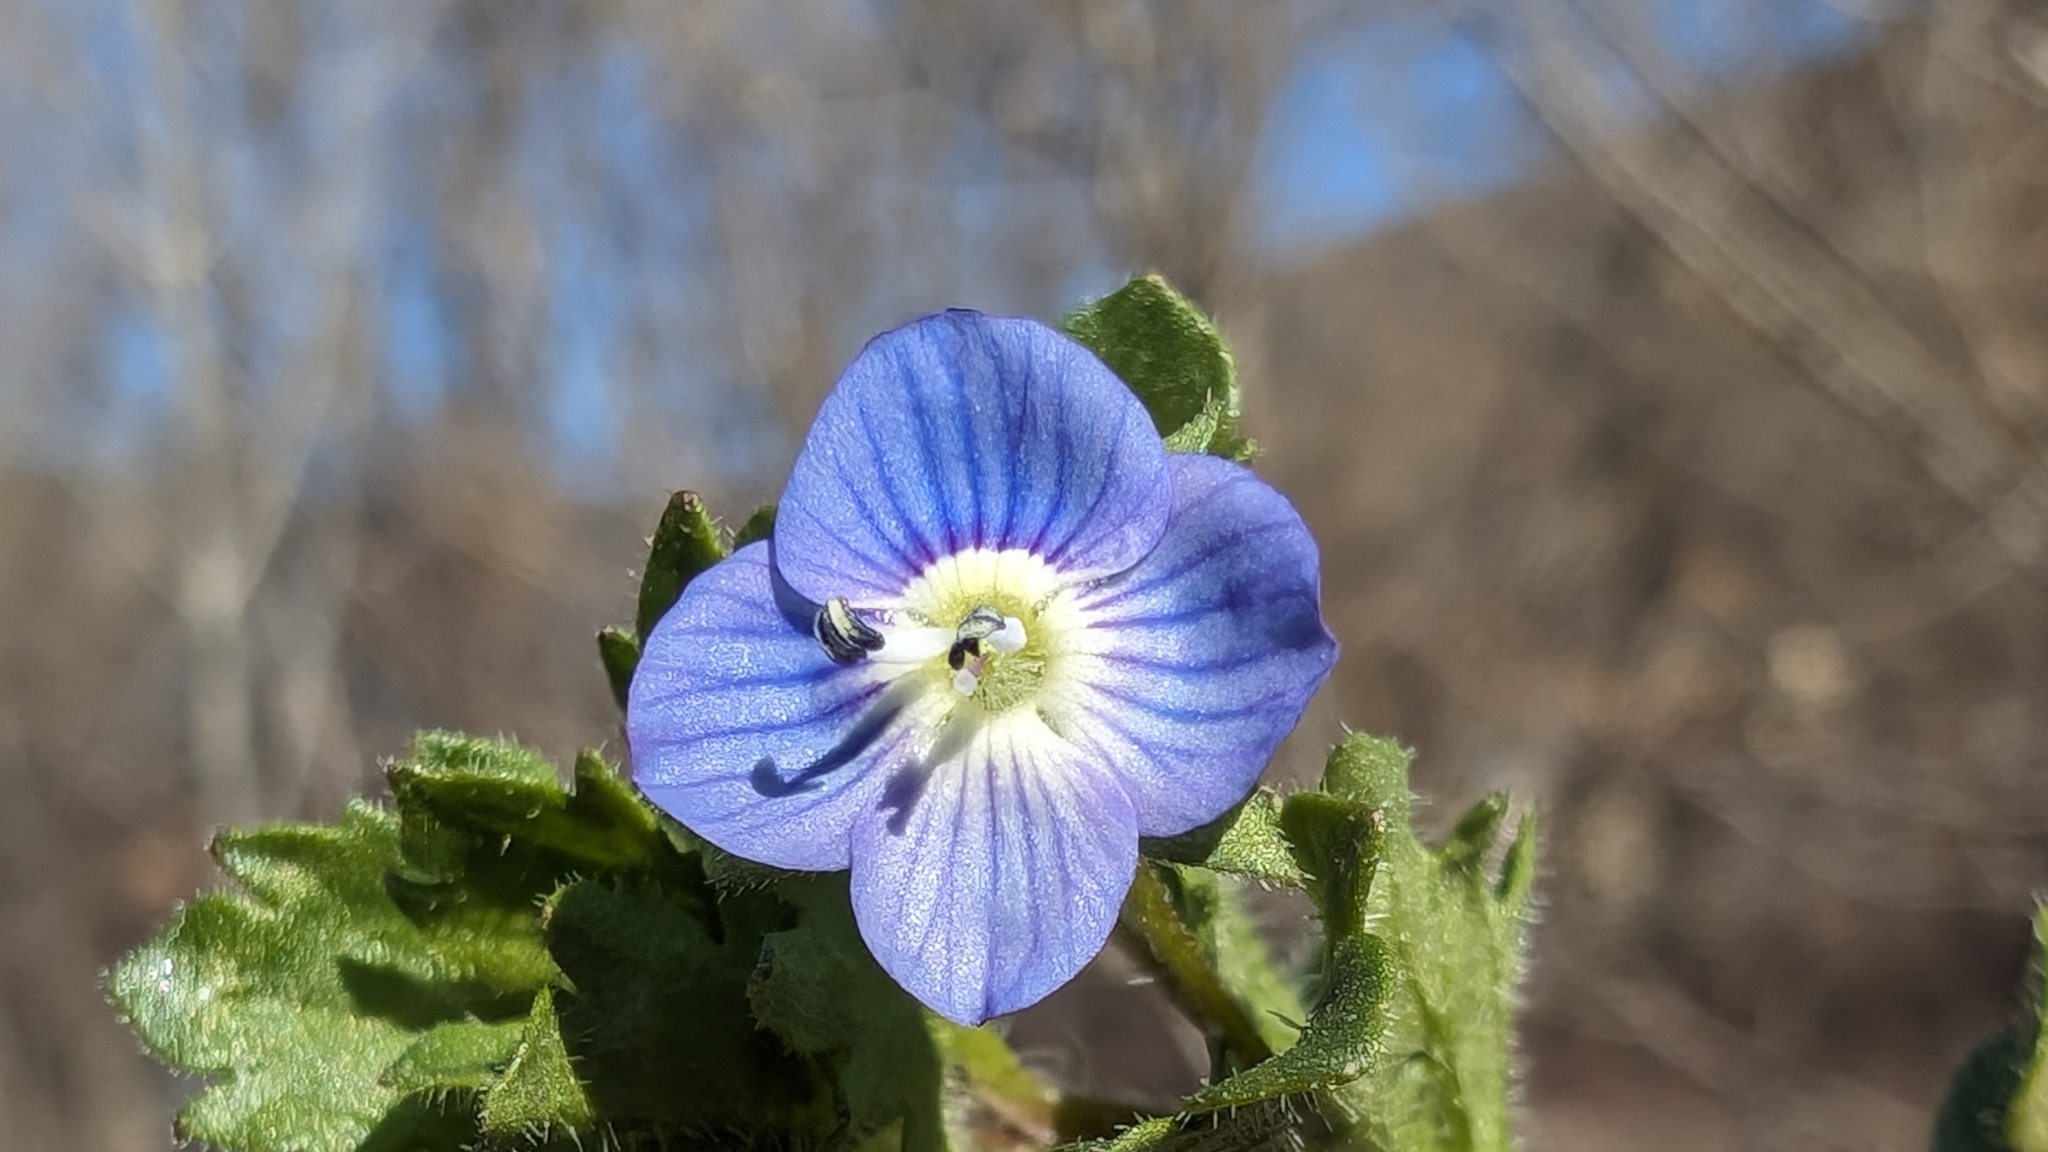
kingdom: Plantae
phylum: Tracheophyta
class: Magnoliopsida
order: Lamiales
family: Plantaginaceae
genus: Veronica
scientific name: Veronica persica
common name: Common field-speedwell
